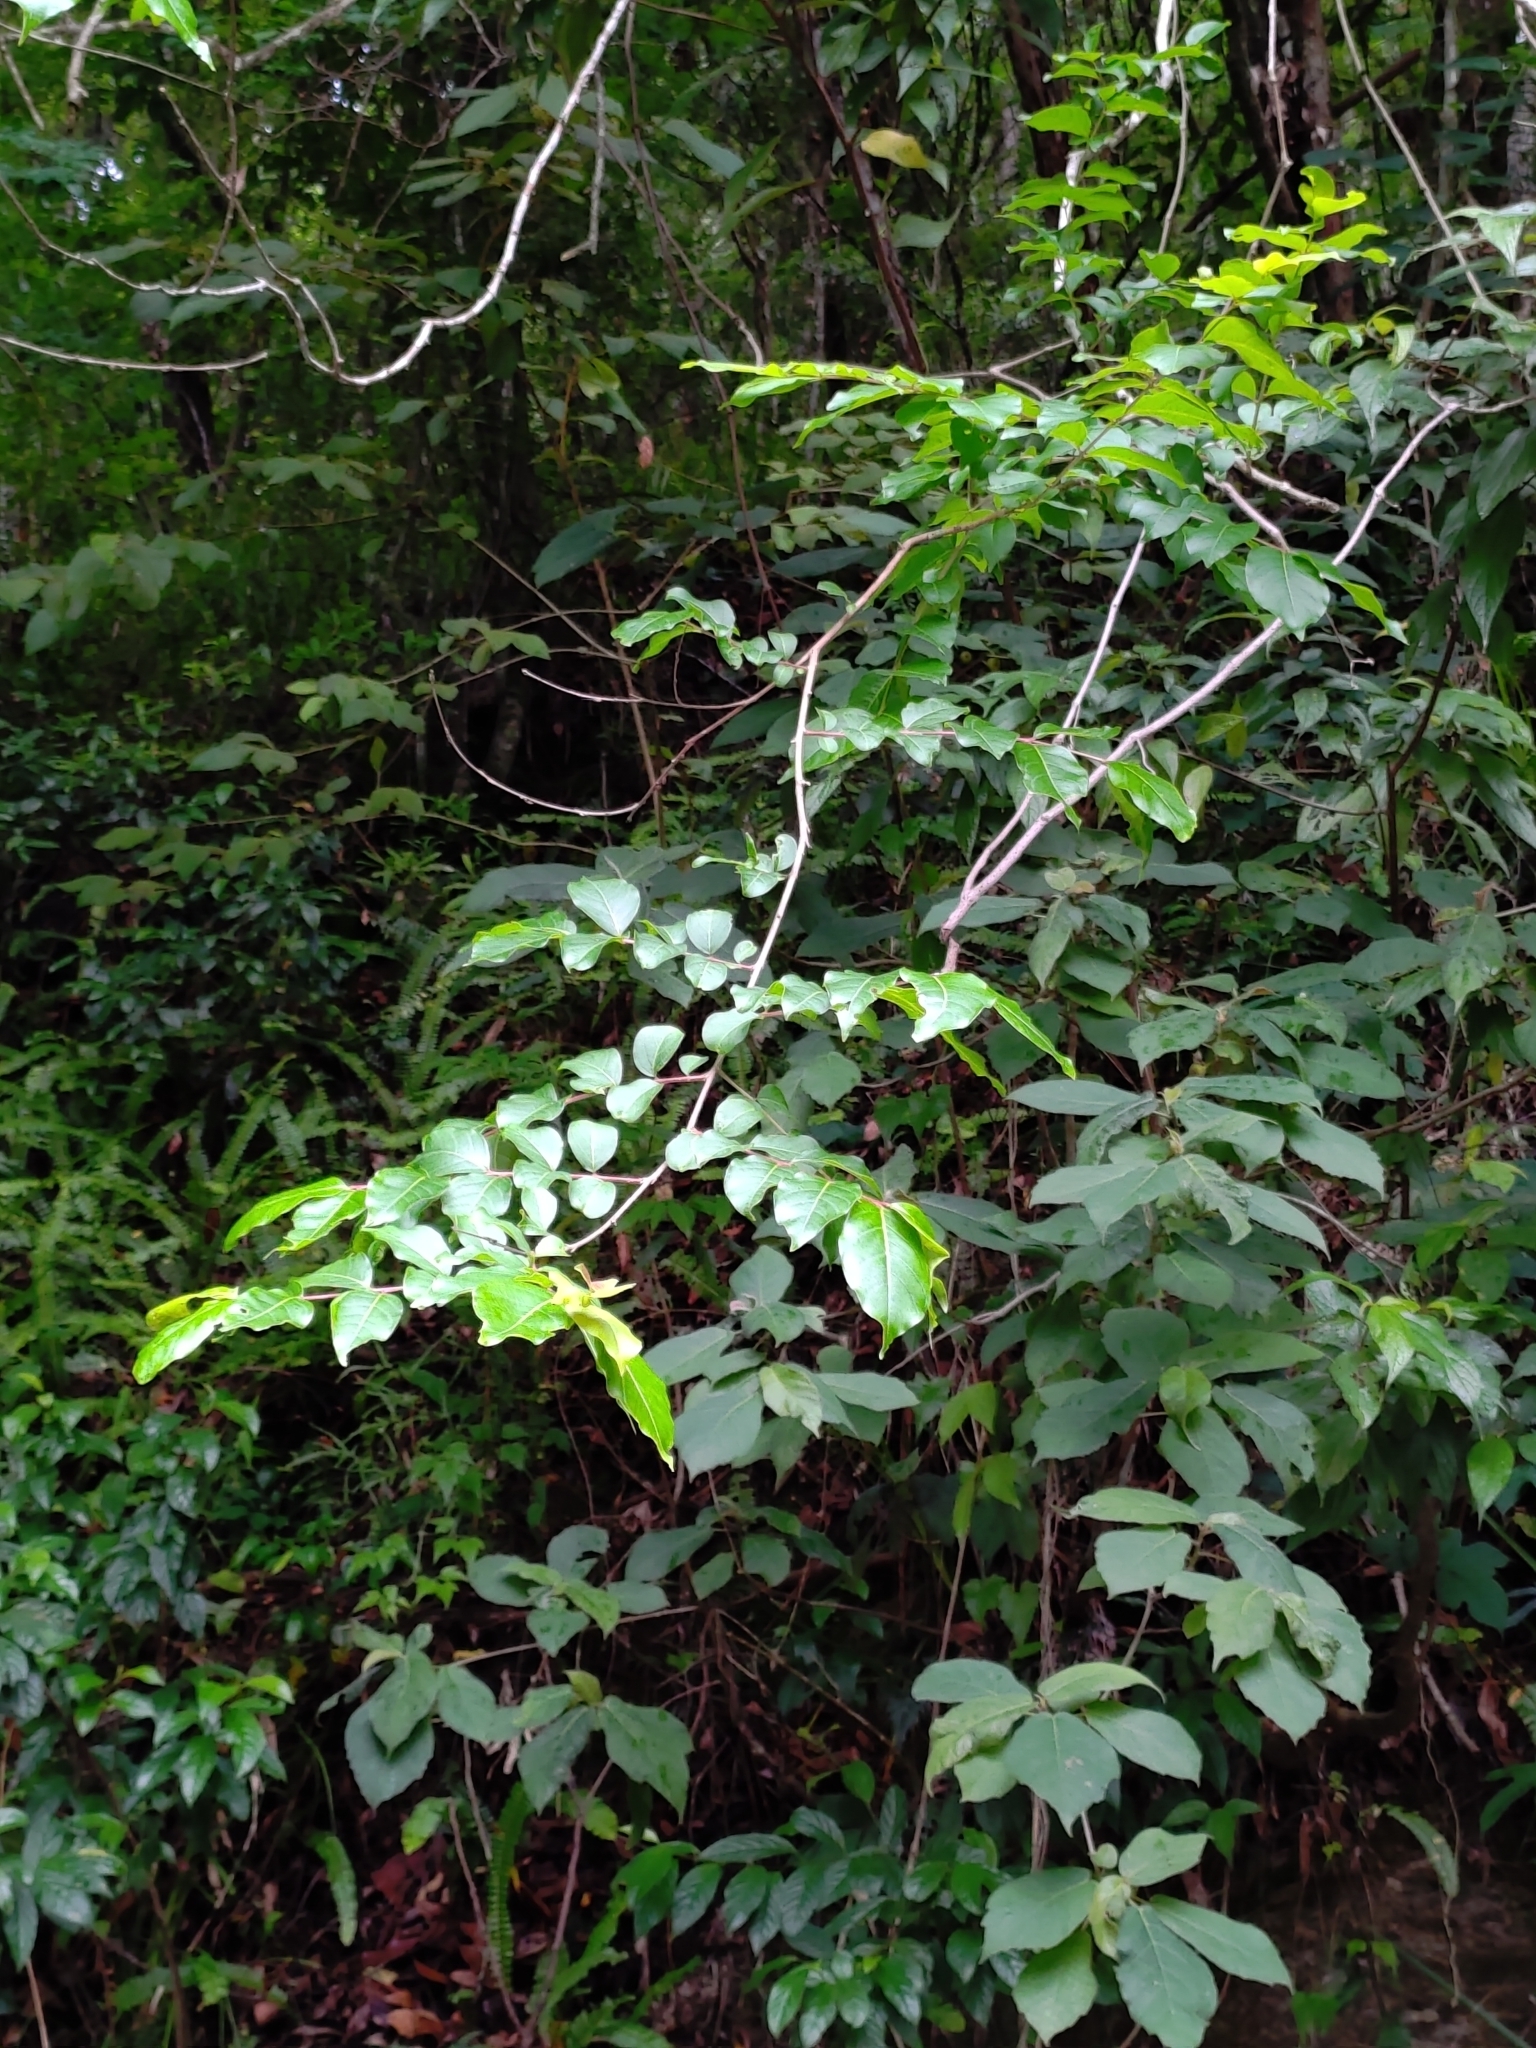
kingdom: Plantae
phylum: Tracheophyta
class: Magnoliopsida
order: Myrtales
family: Lythraceae
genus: Lagerstroemia
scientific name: Lagerstroemia subcostata
